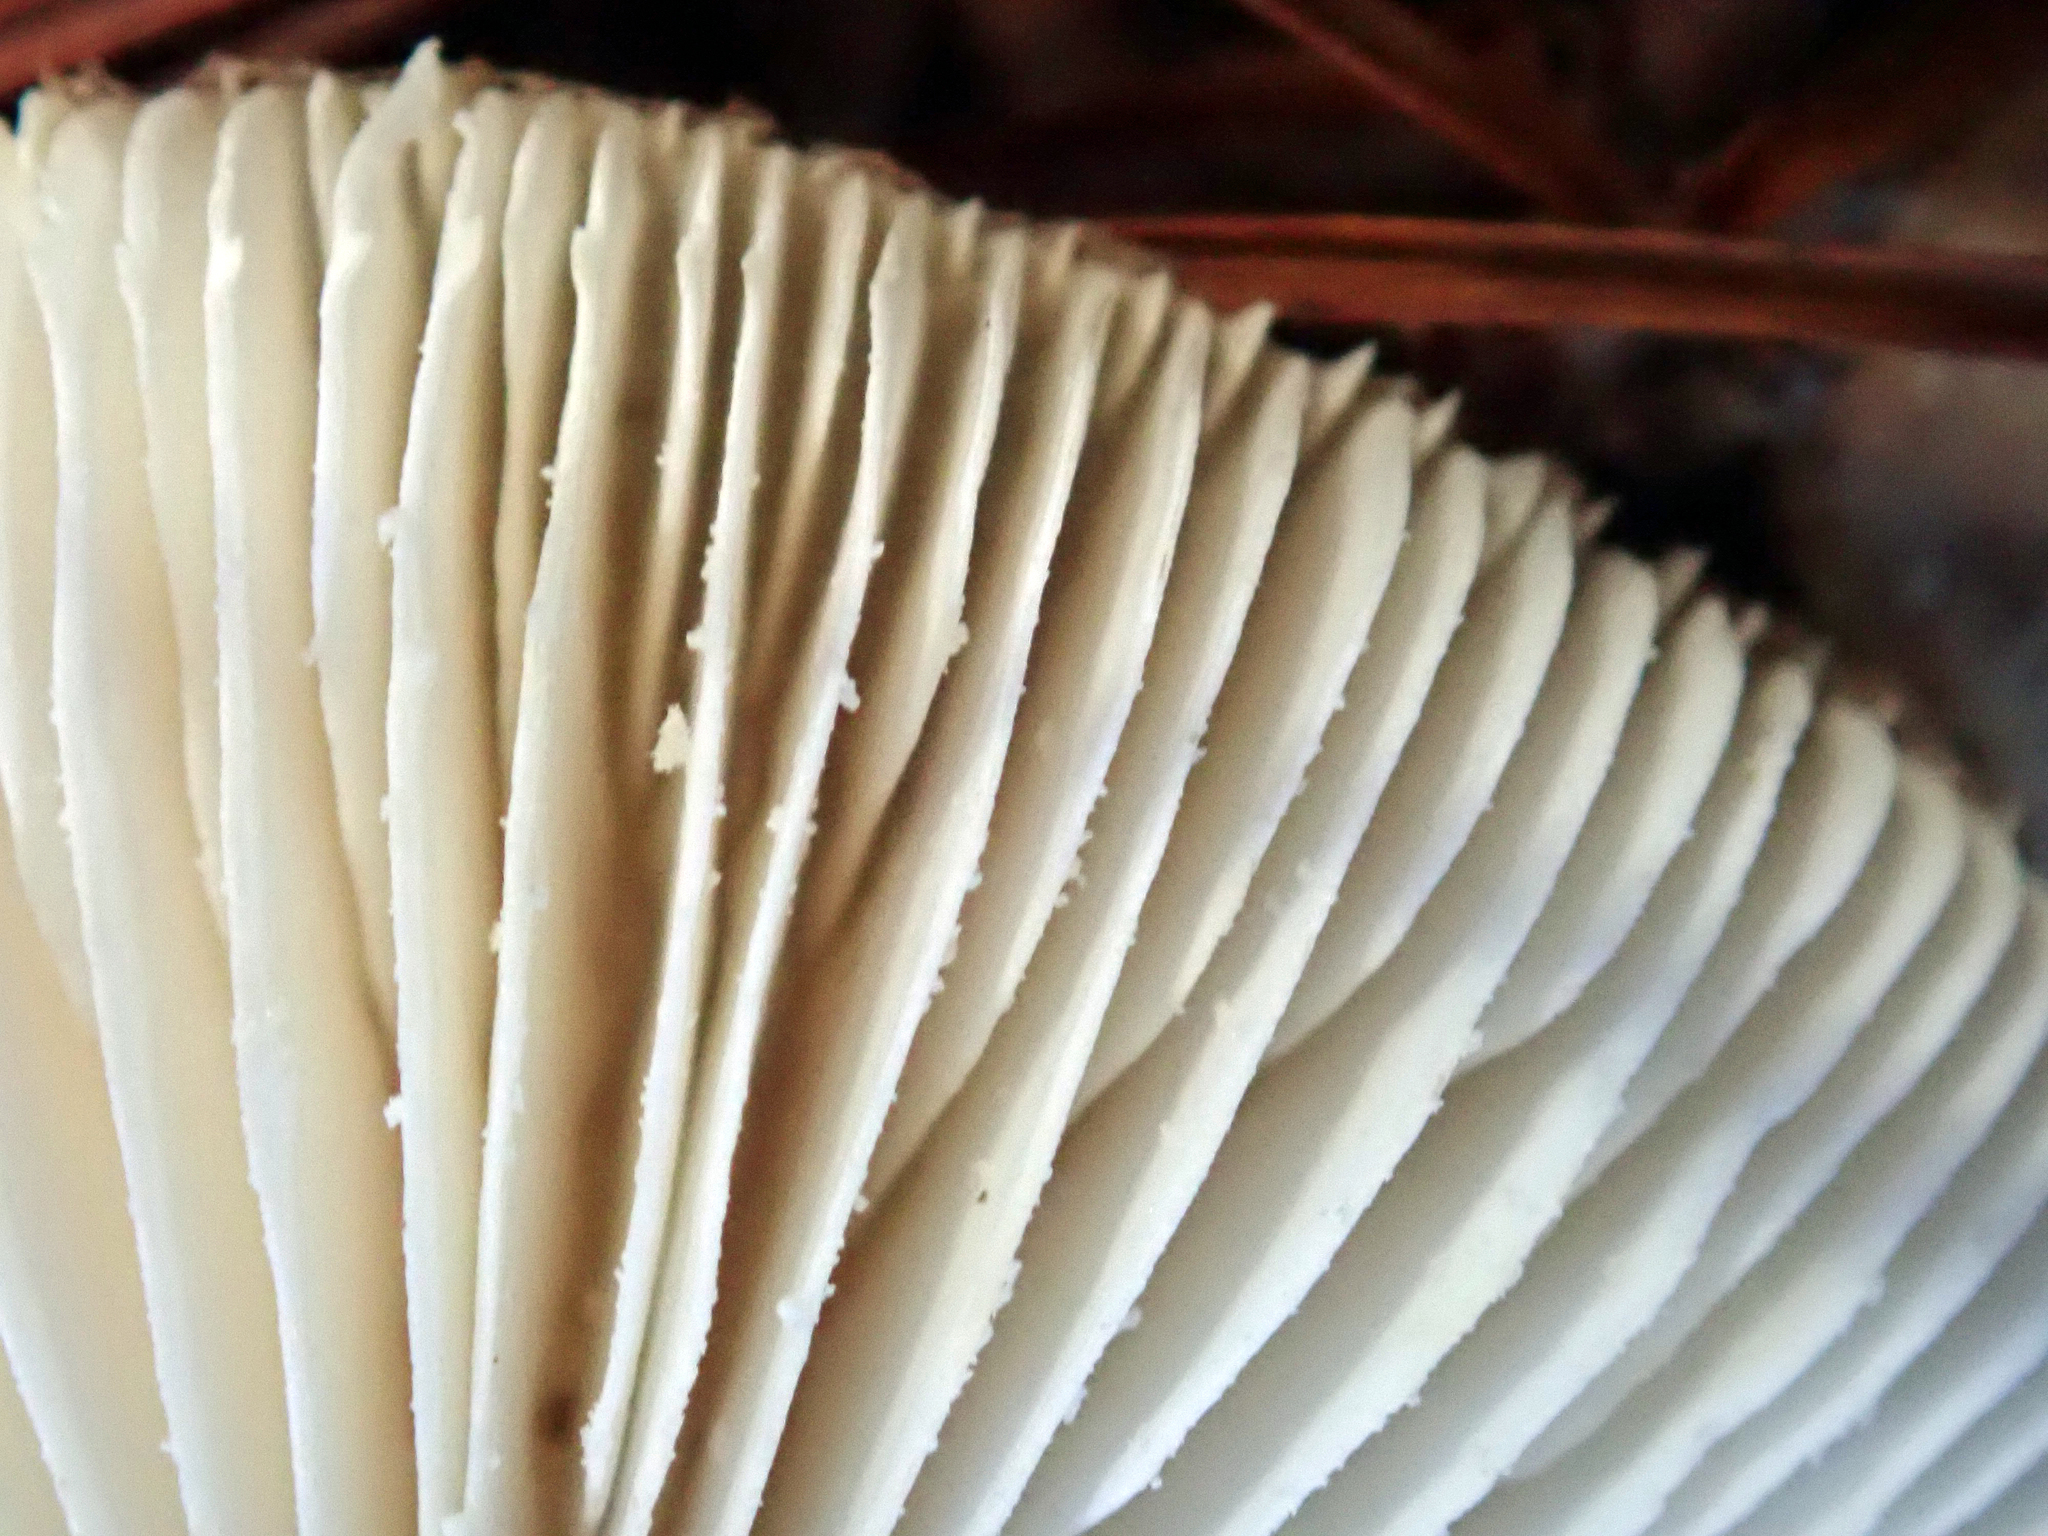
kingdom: Fungi
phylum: Basidiomycota
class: Agaricomycetes
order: Agaricales
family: Amanitaceae
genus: Amanita
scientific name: Amanita australis
